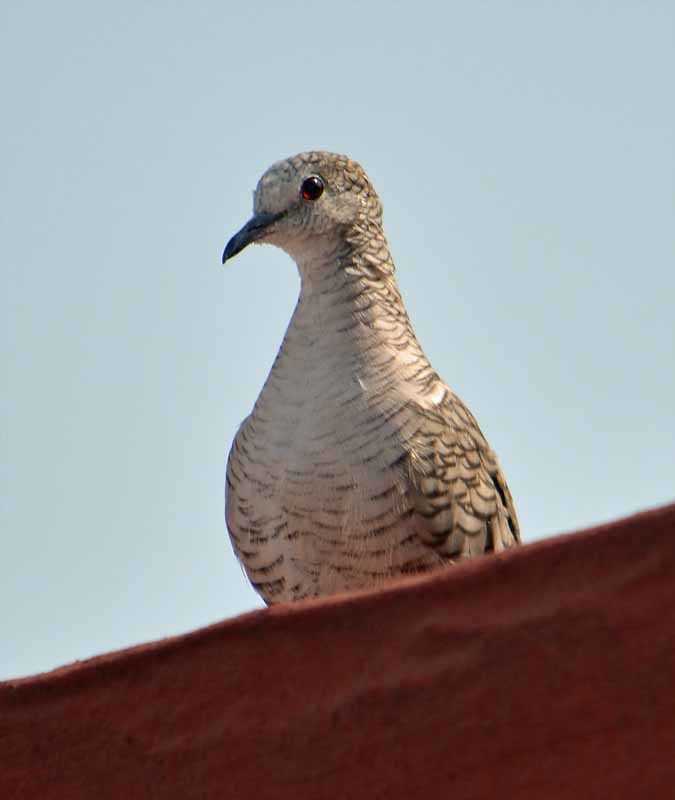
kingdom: Animalia
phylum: Chordata
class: Aves
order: Columbiformes
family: Columbidae
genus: Columbina
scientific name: Columbina inca
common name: Inca dove
